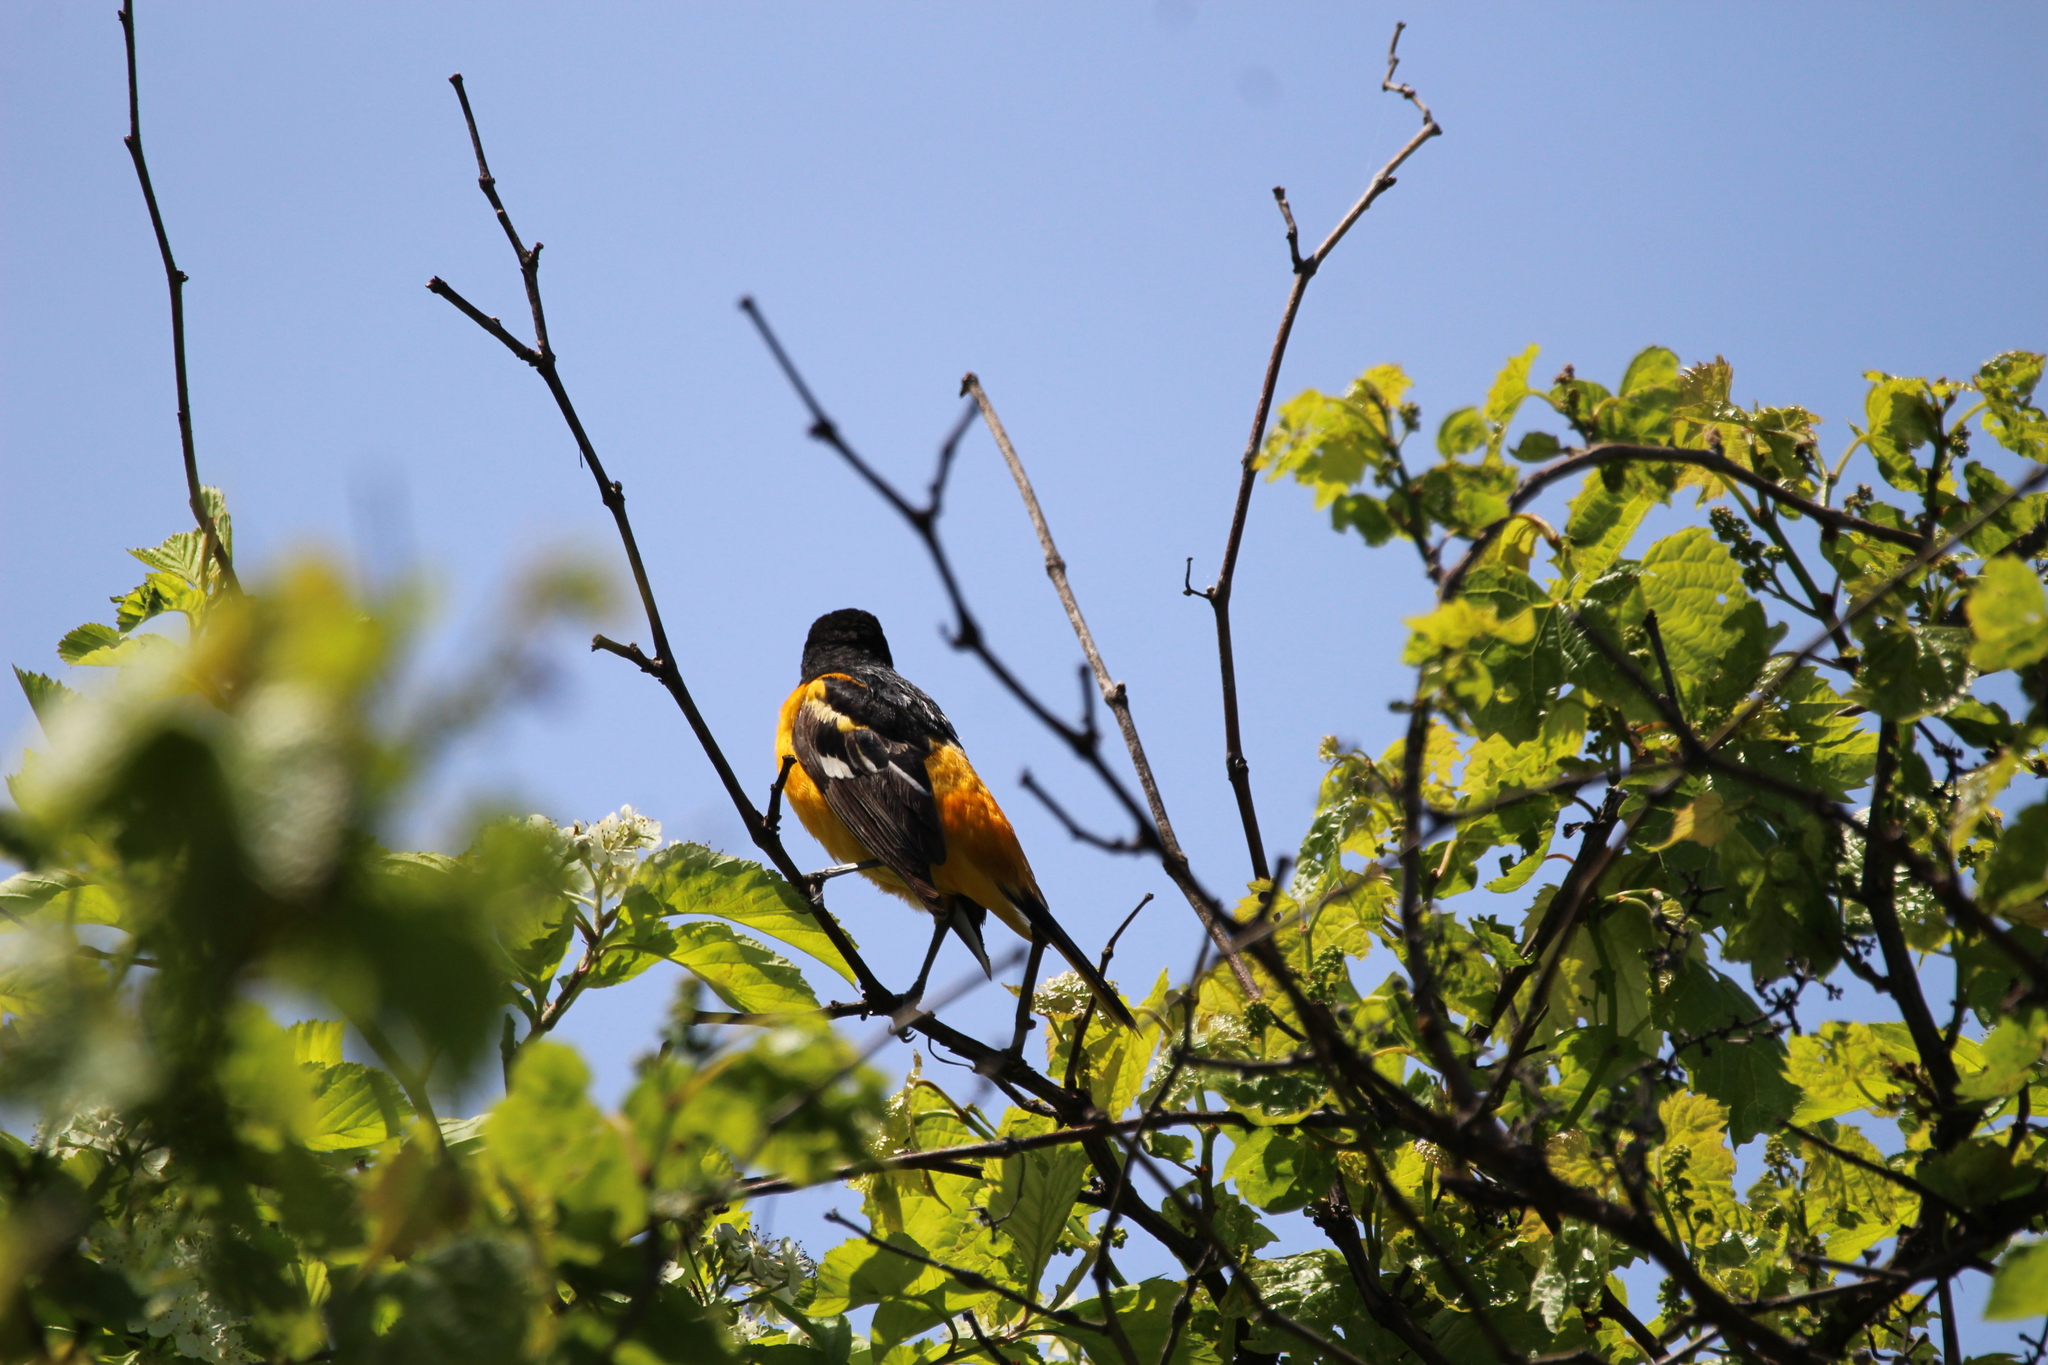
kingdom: Animalia
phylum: Chordata
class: Aves
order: Passeriformes
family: Icteridae
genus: Icterus
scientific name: Icterus galbula
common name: Baltimore oriole
